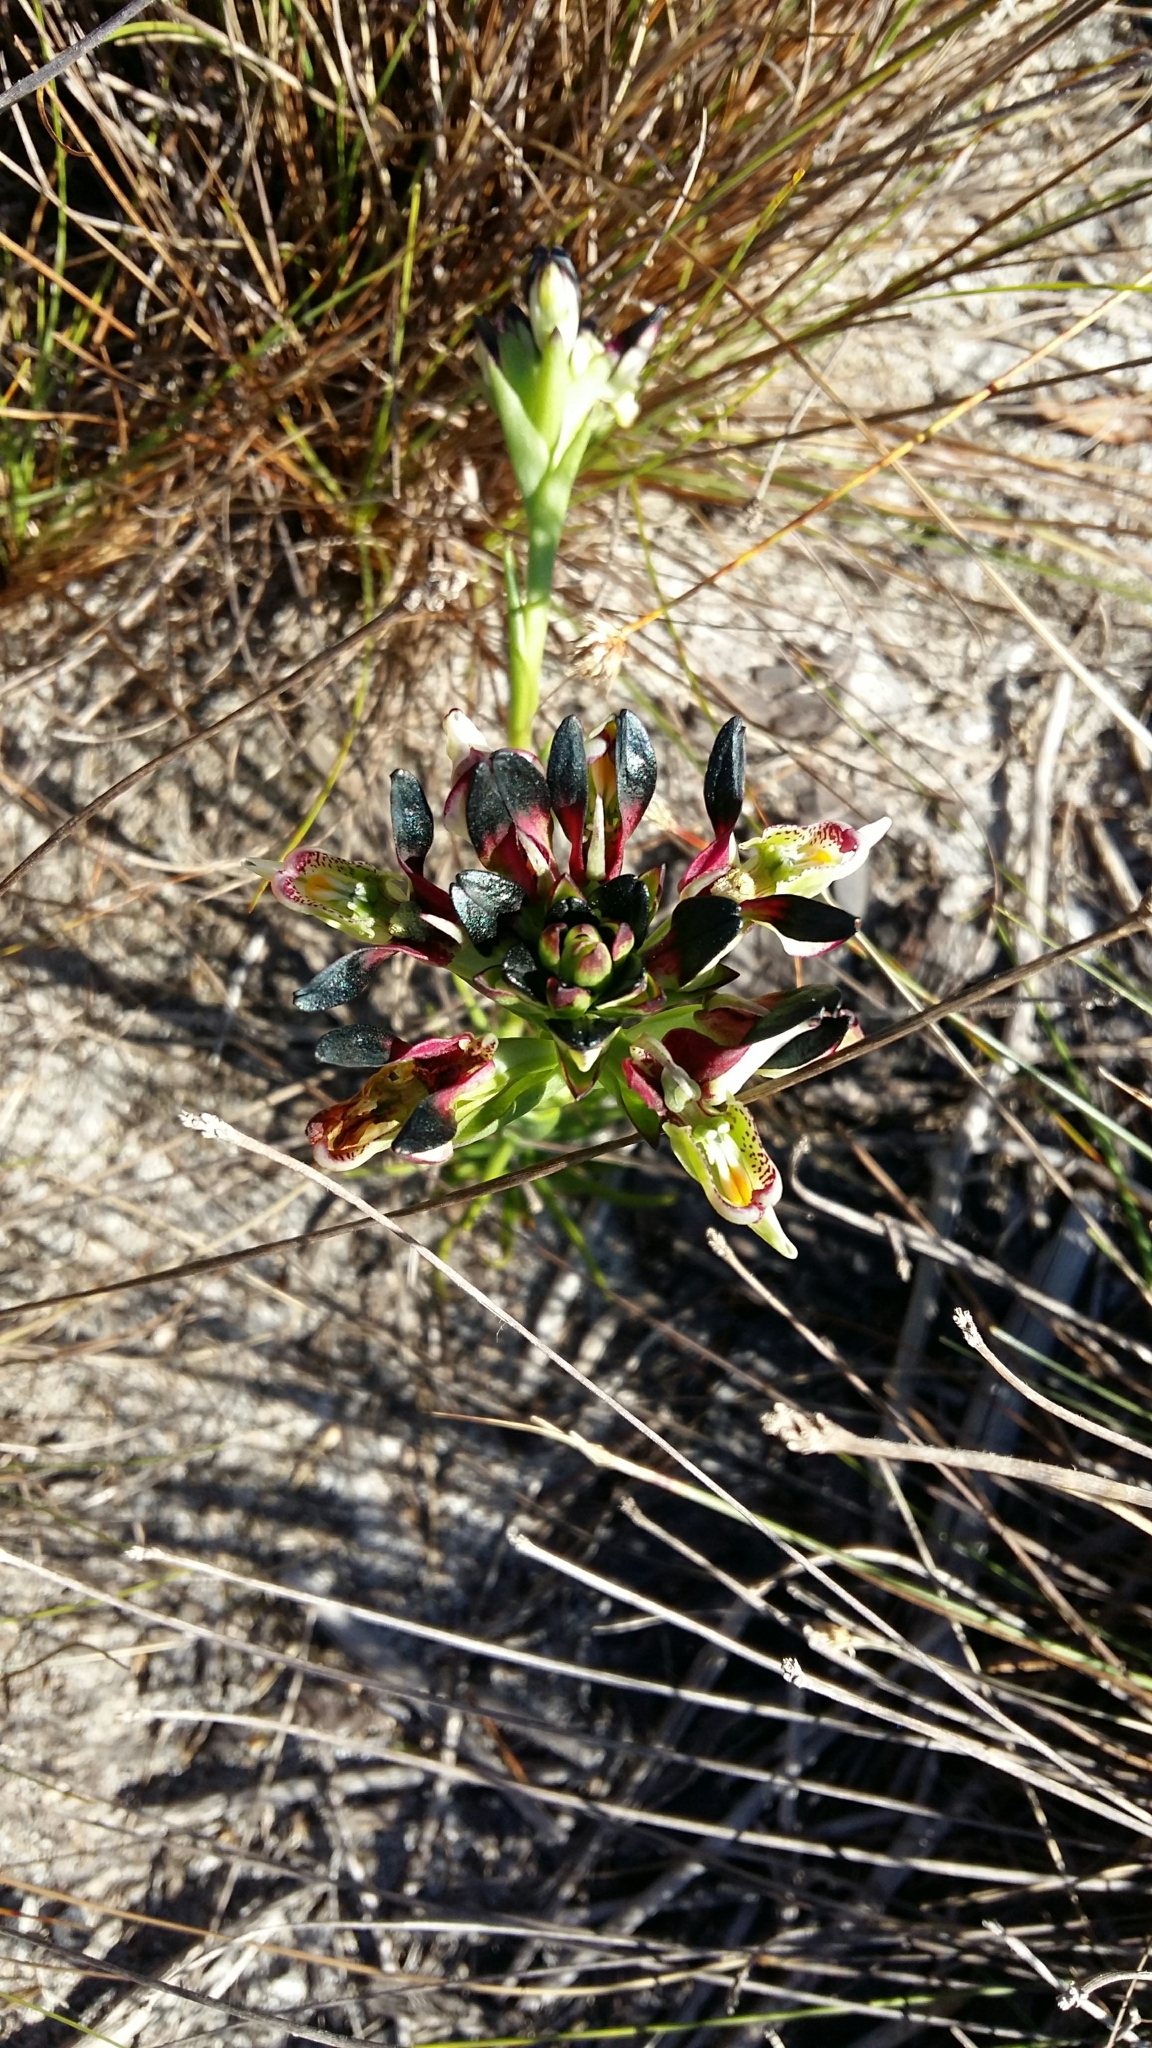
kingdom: Plantae
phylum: Tracheophyta
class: Liliopsida
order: Asparagales
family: Orchidaceae
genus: Disa
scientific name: Disa atricapilla
